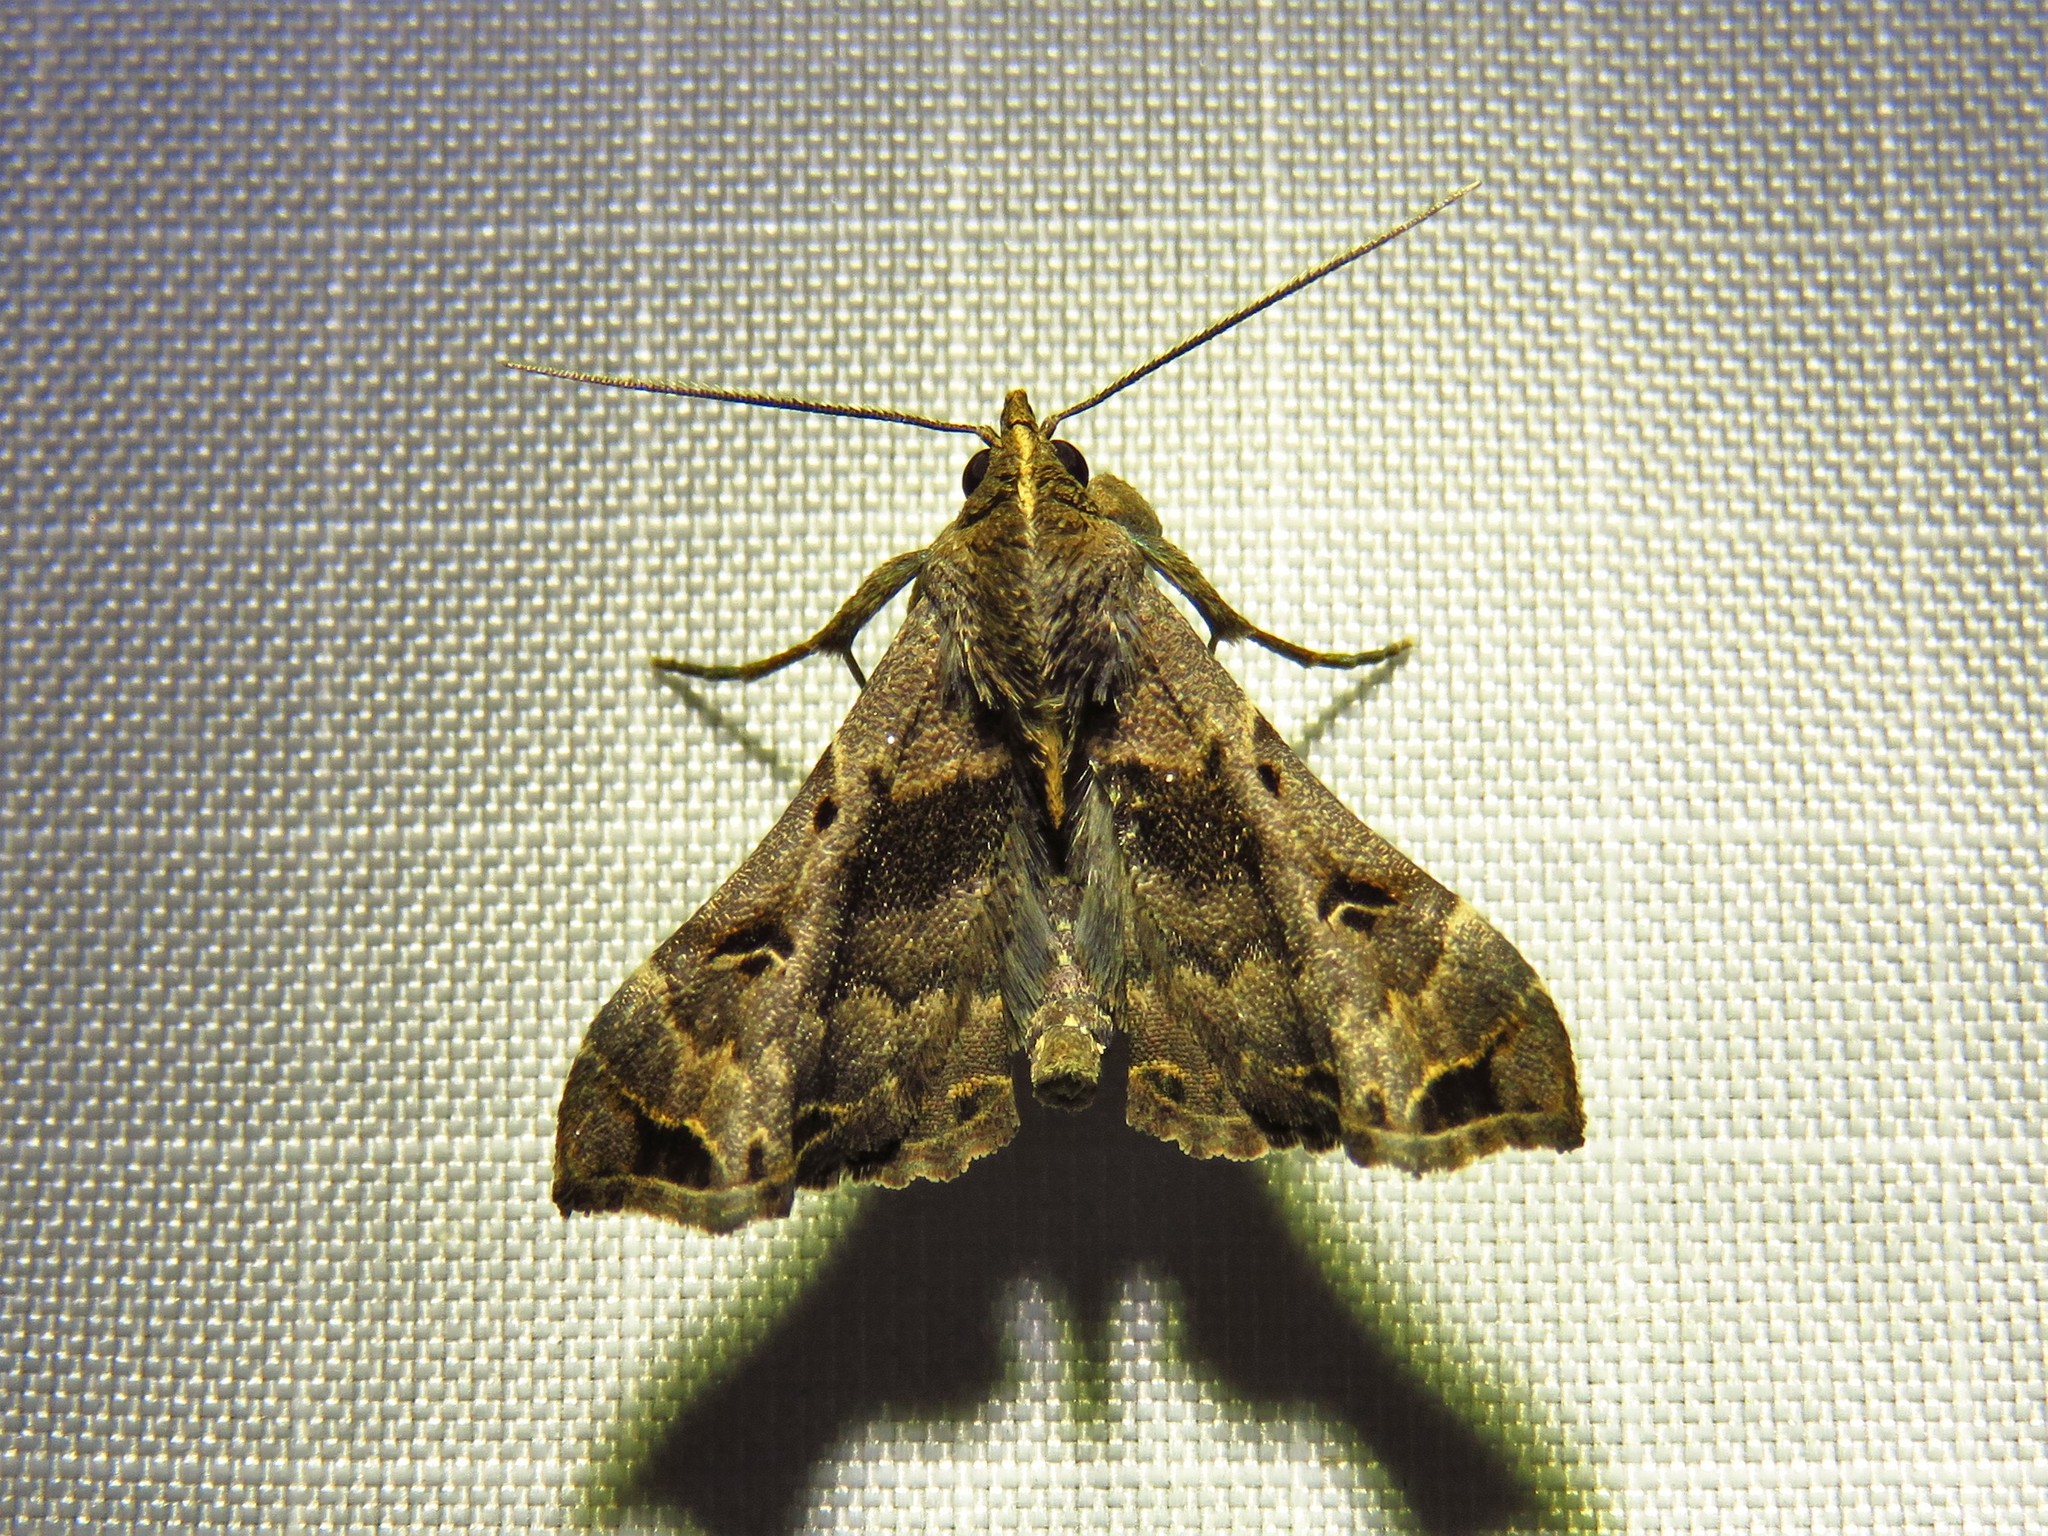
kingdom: Animalia
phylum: Arthropoda
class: Insecta
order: Lepidoptera
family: Erebidae
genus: Palthis
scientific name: Palthis asopialis
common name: Faint-spotted palthis moth
